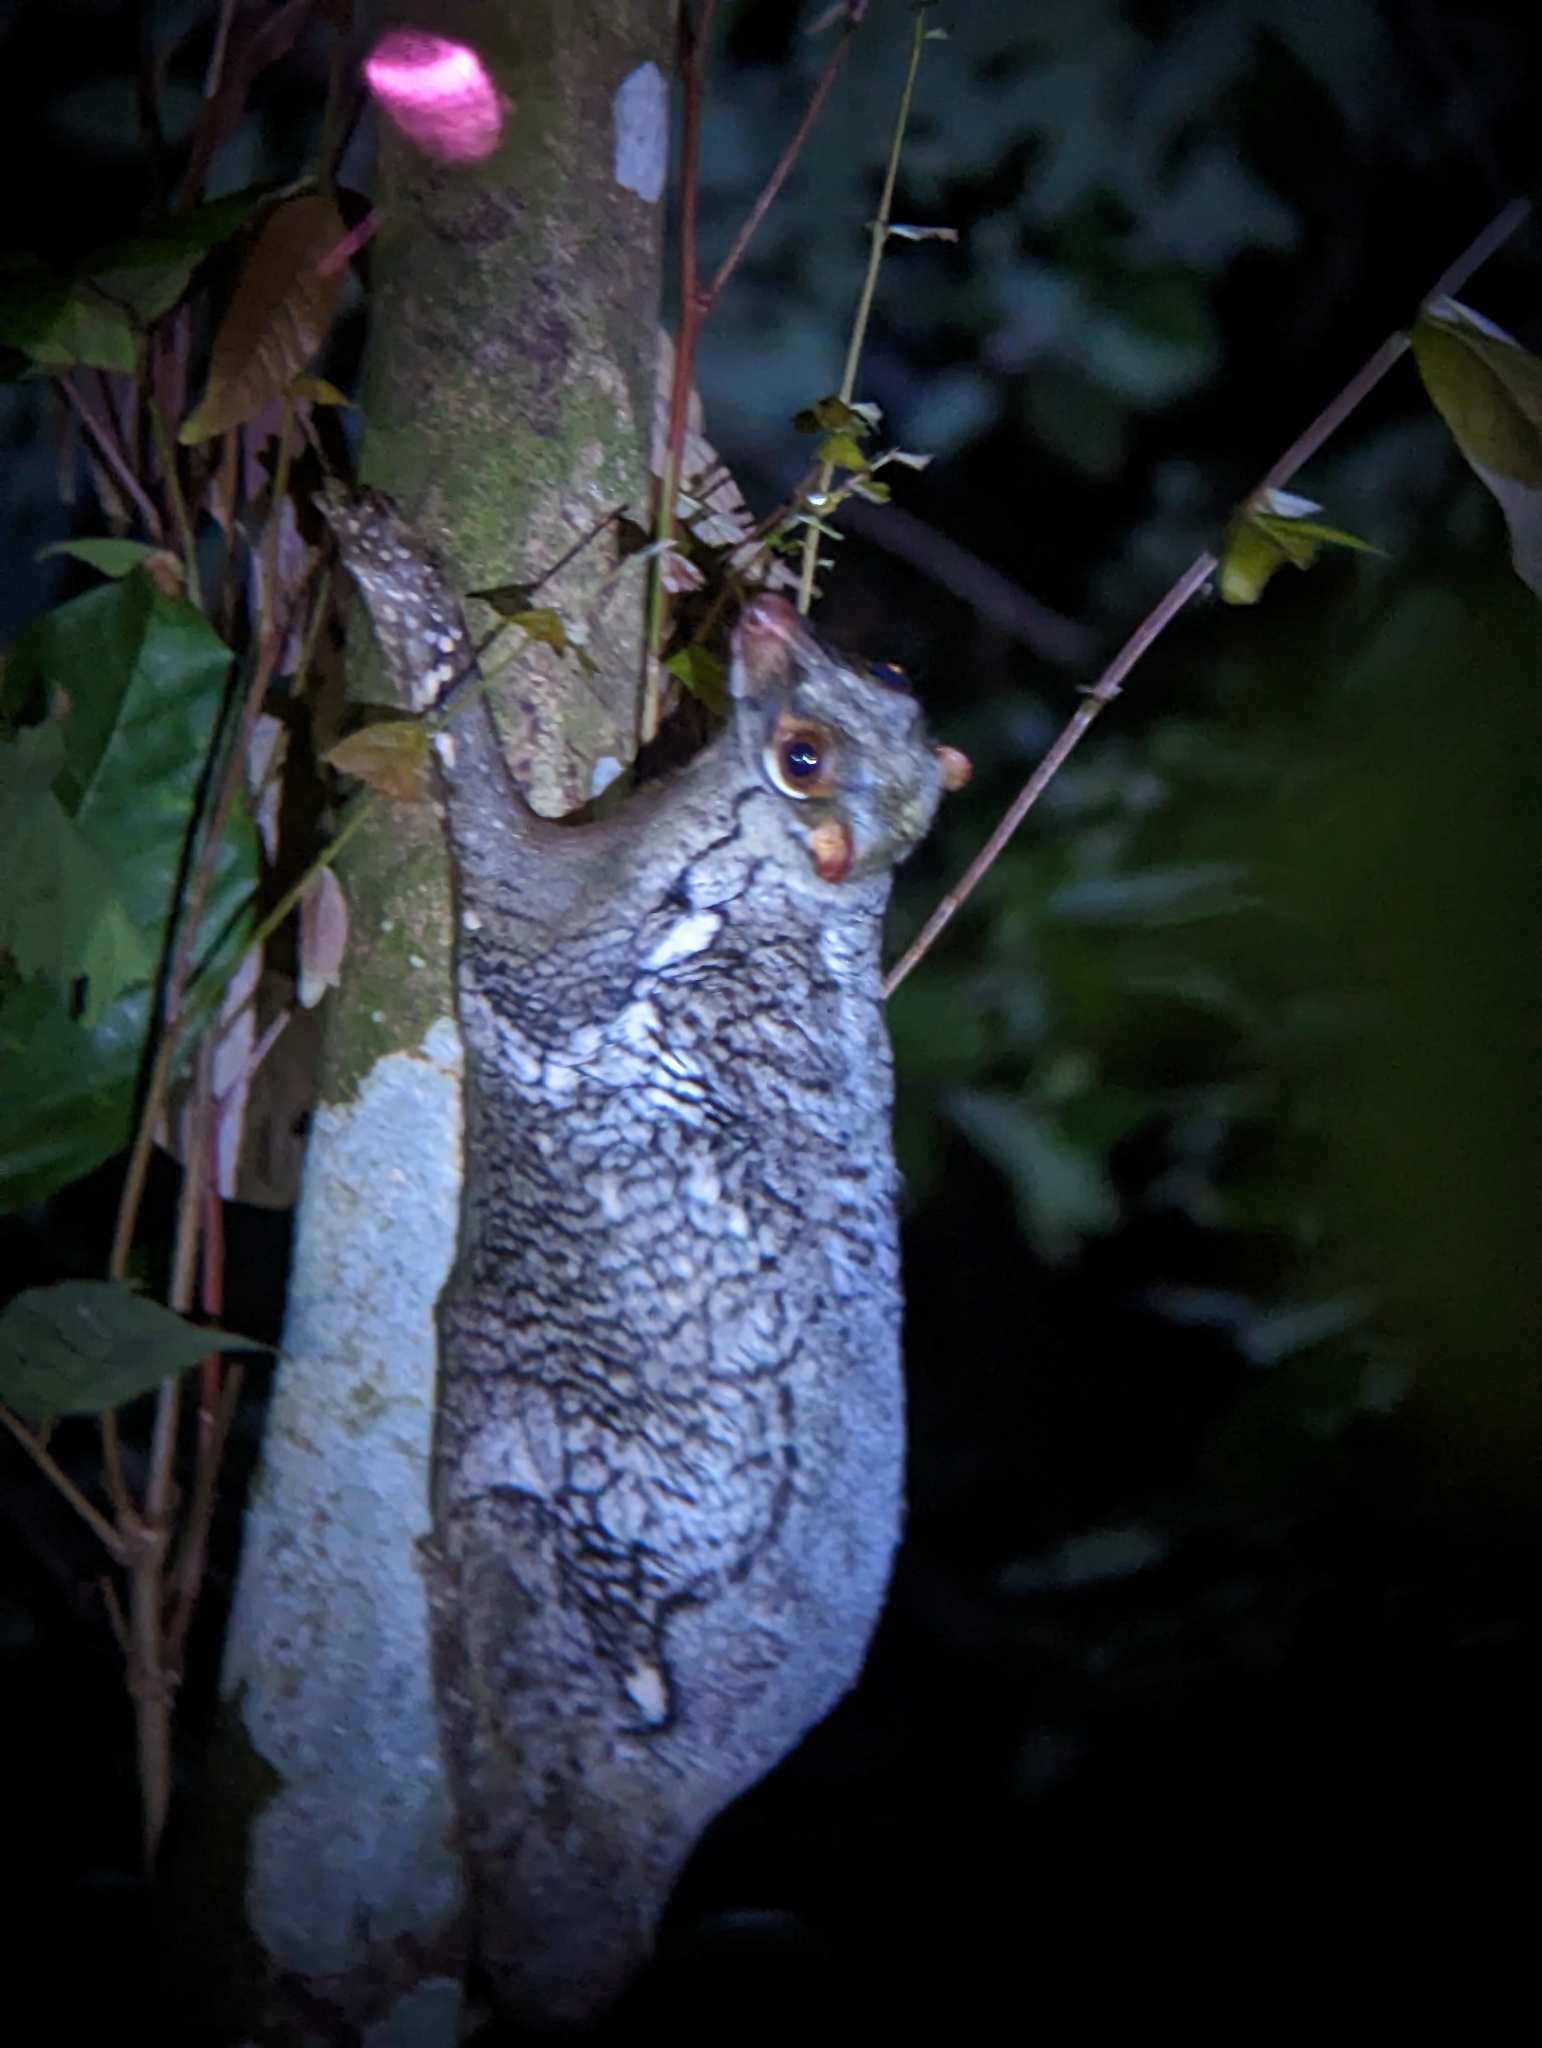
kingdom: Animalia
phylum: Chordata
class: Mammalia
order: Dermoptera
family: Cynocephalidae
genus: Galeopterus
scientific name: Galeopterus variegatus
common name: Sunda flying lemur
